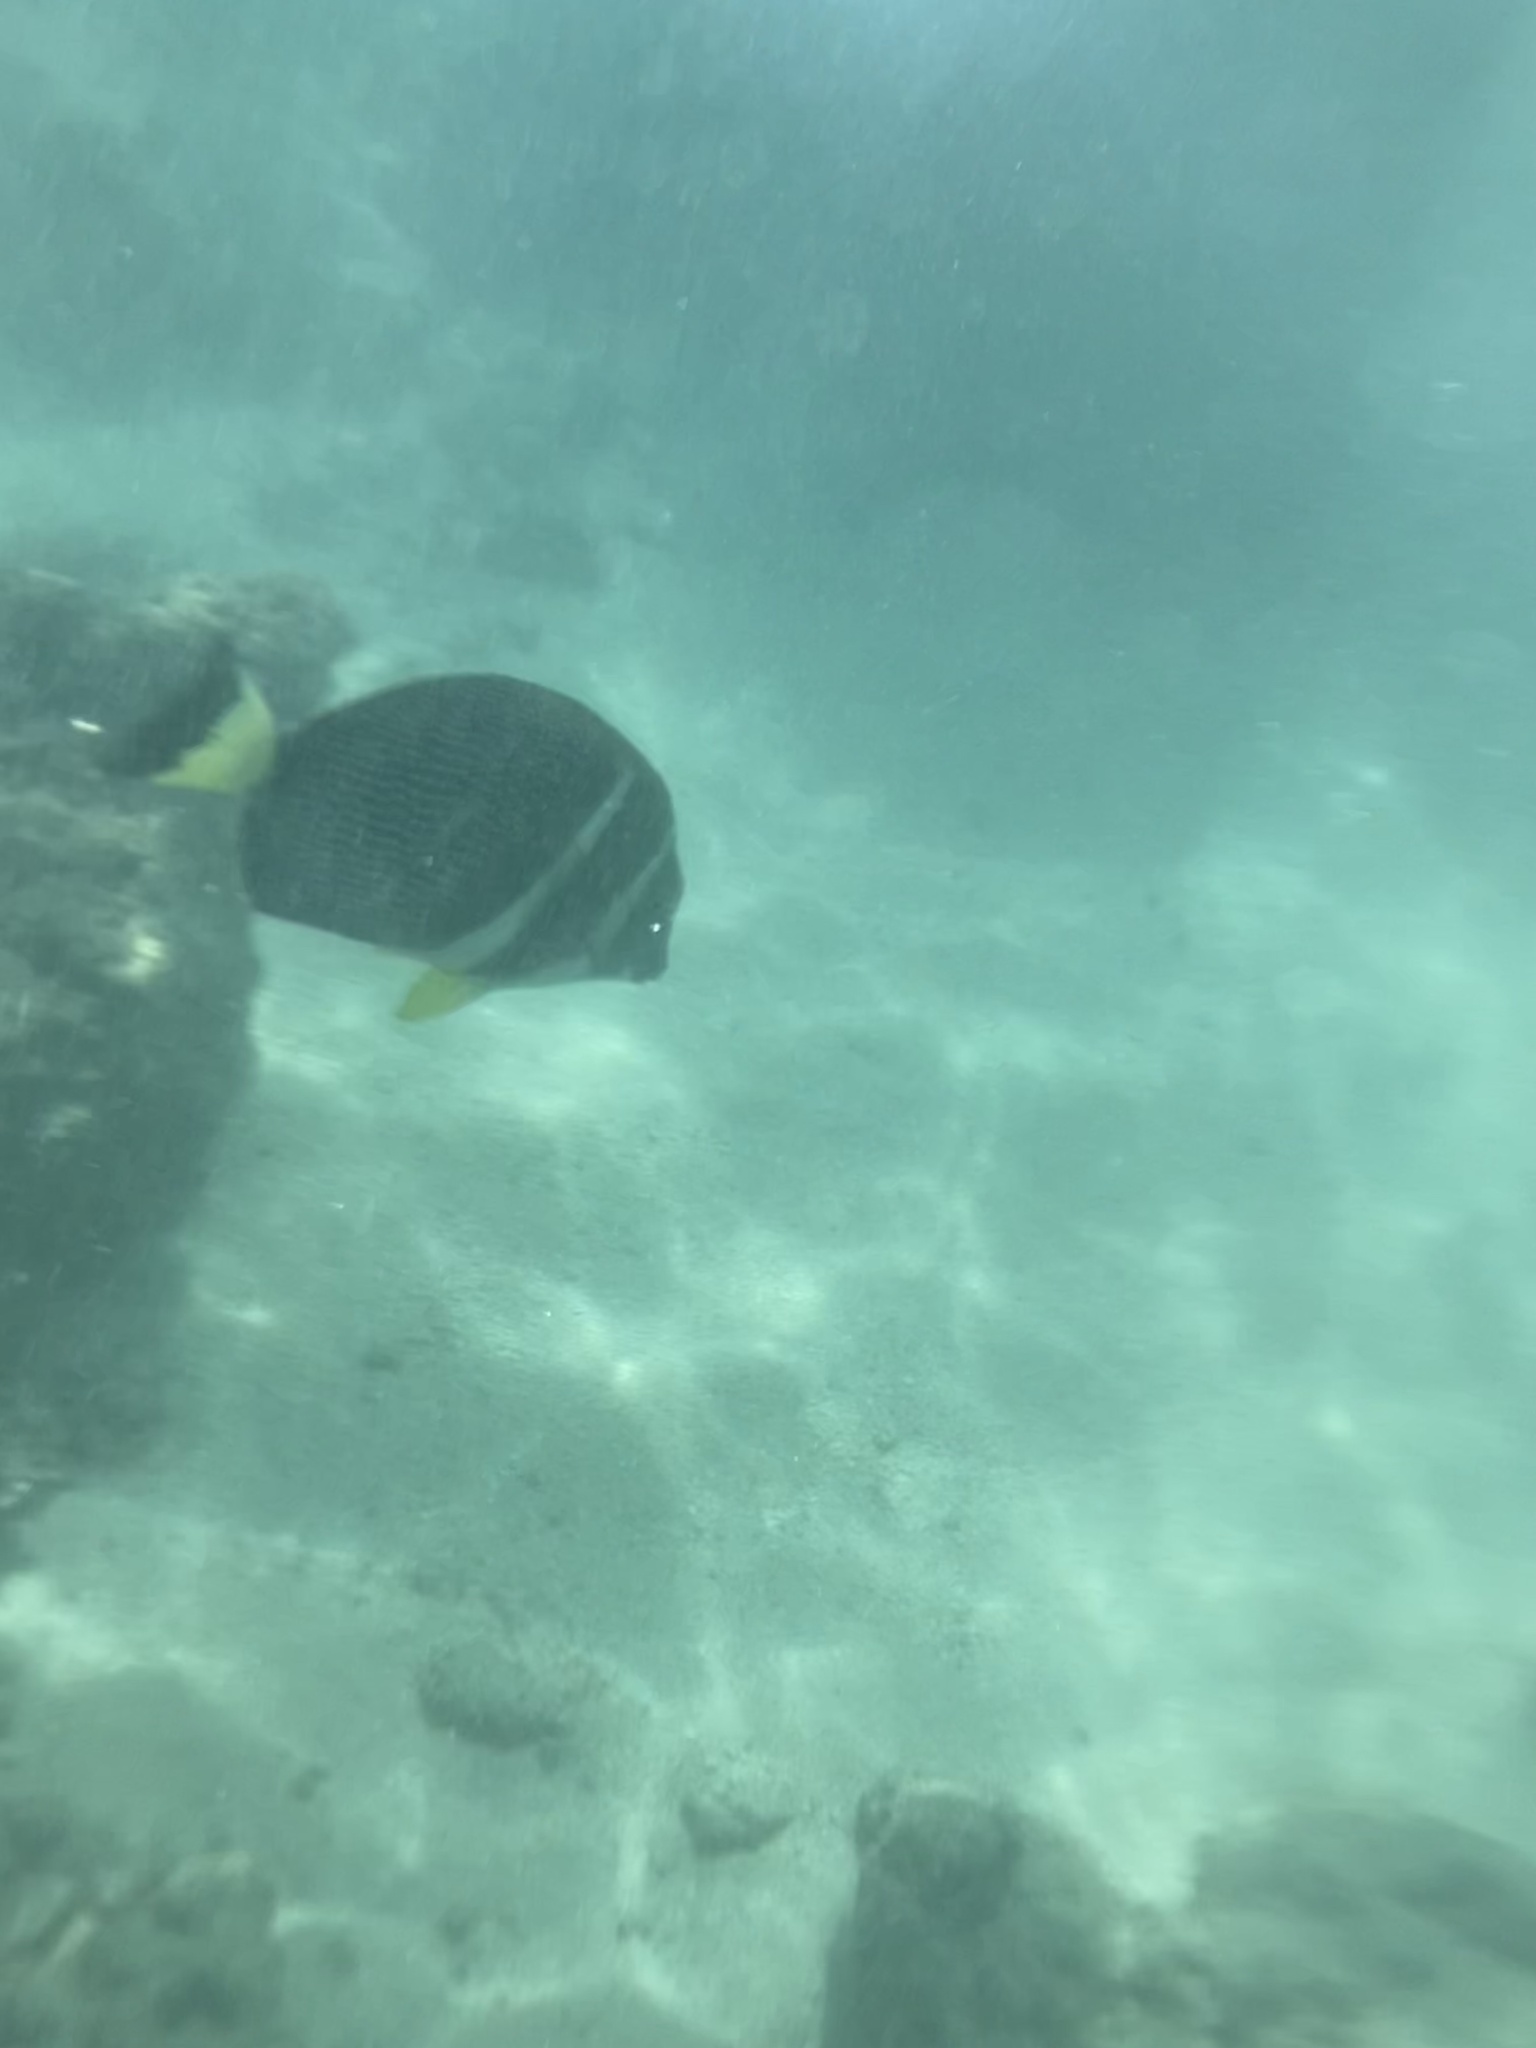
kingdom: Animalia
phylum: Chordata
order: Perciformes
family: Acanthuridae
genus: Acanthurus
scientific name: Acanthurus guttatus
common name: Whitespotted surgeonfish
